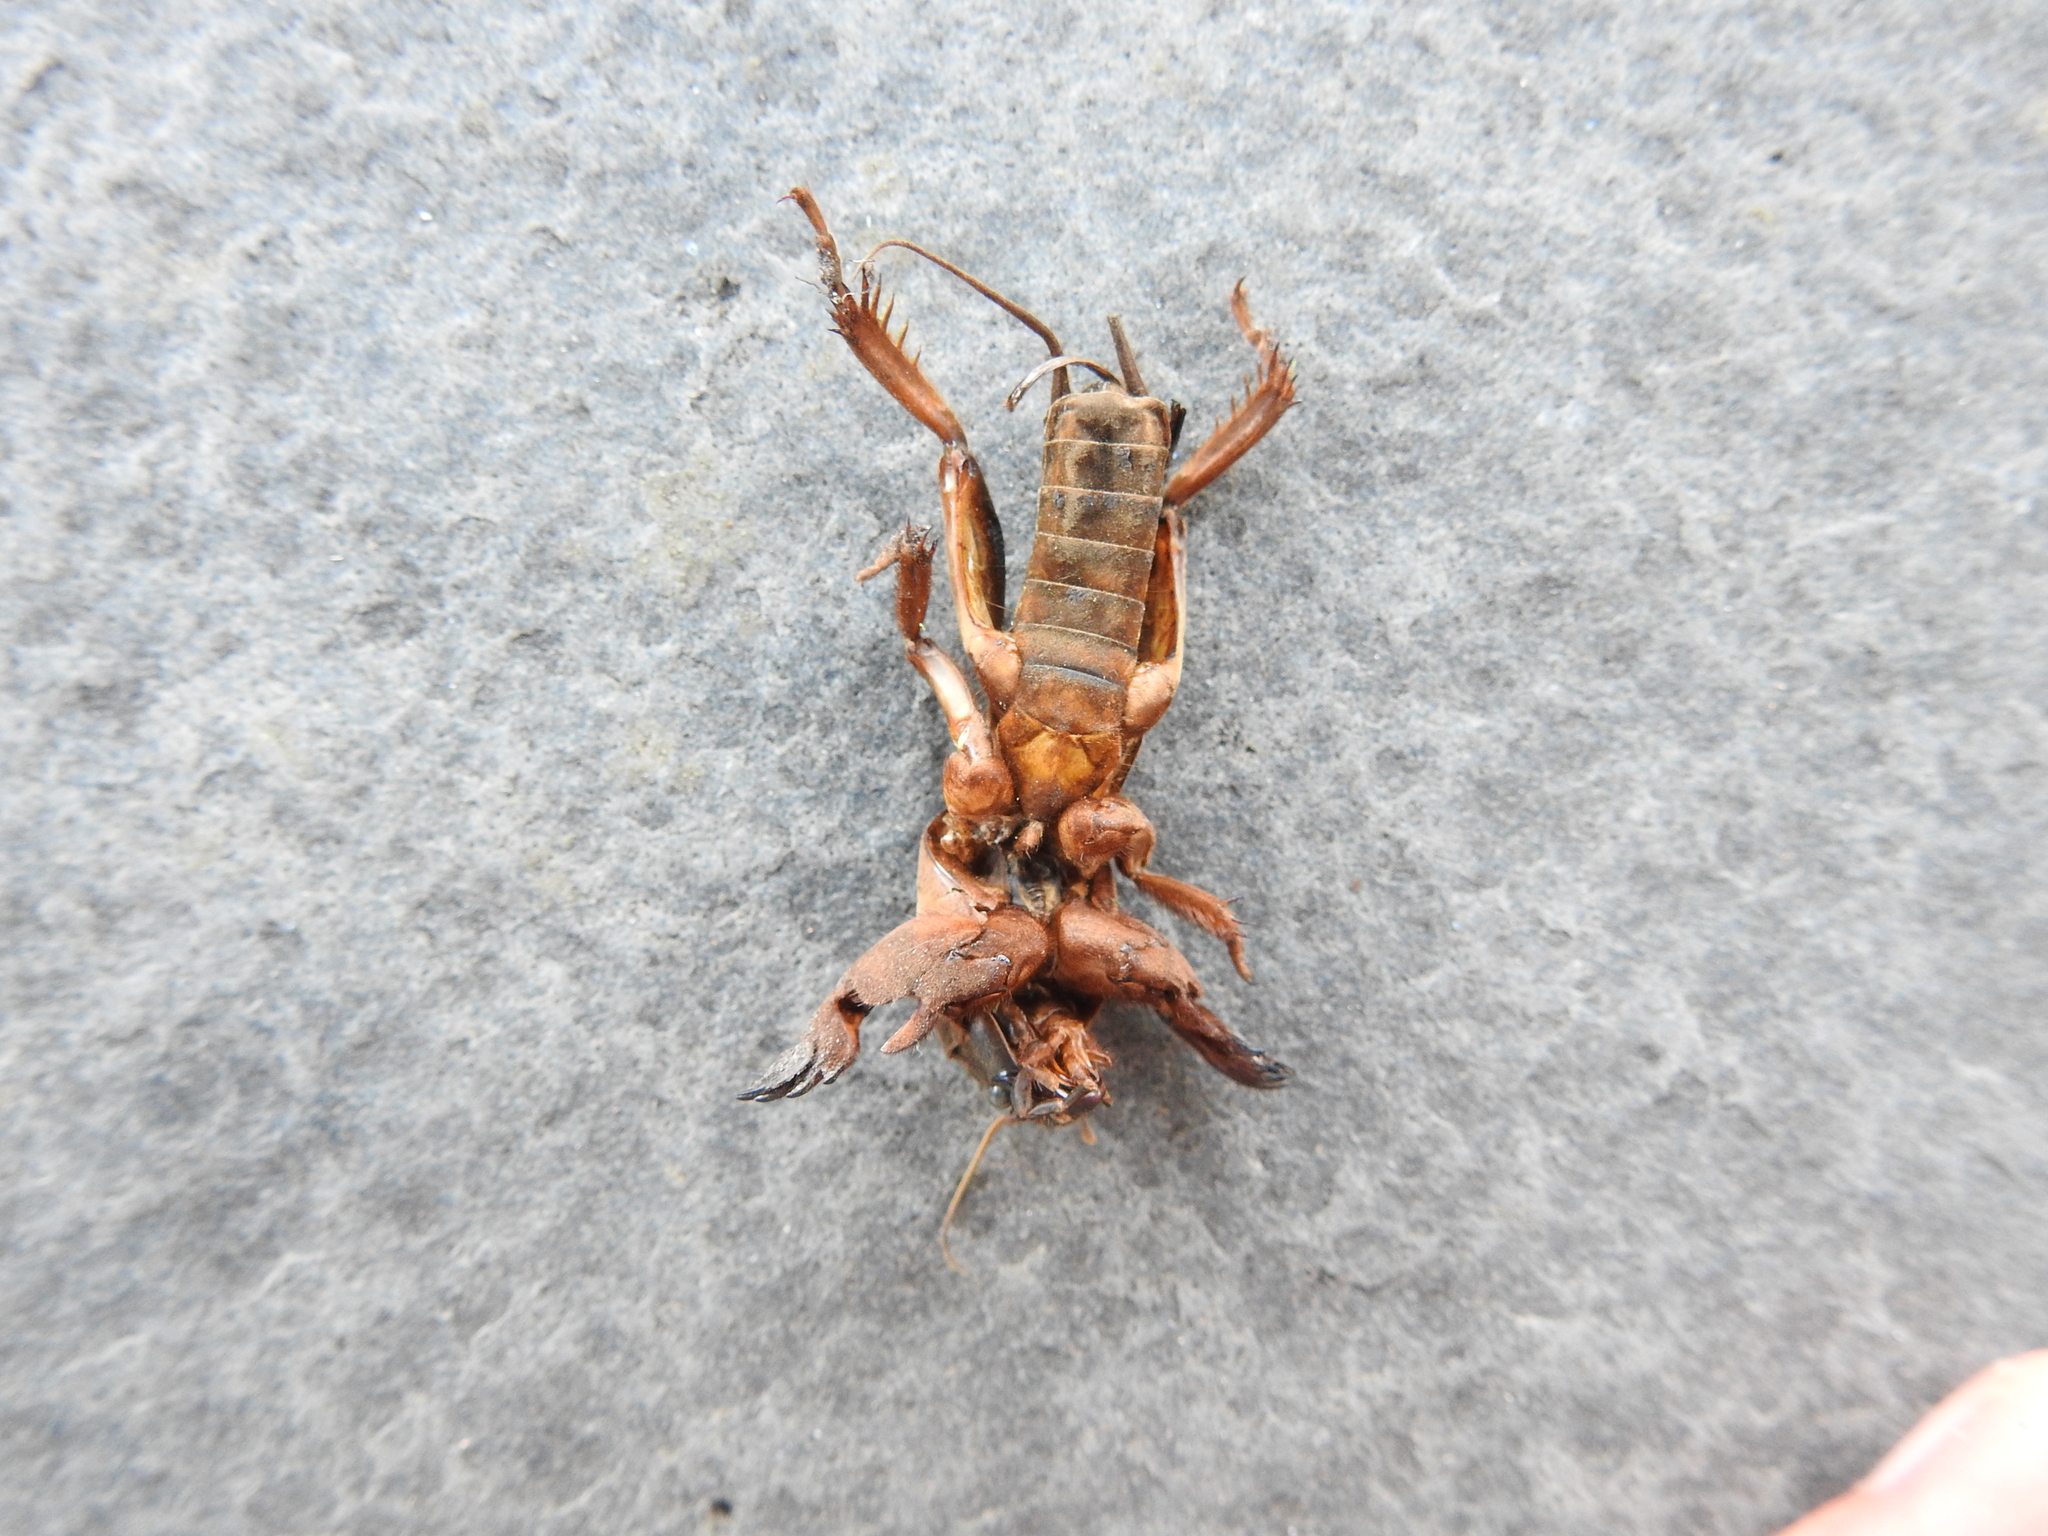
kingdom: Animalia
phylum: Arthropoda
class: Insecta
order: Orthoptera
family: Gryllotalpidae
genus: Gryllotalpa
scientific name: Gryllotalpa gryllotalpa
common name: European mole cricket
